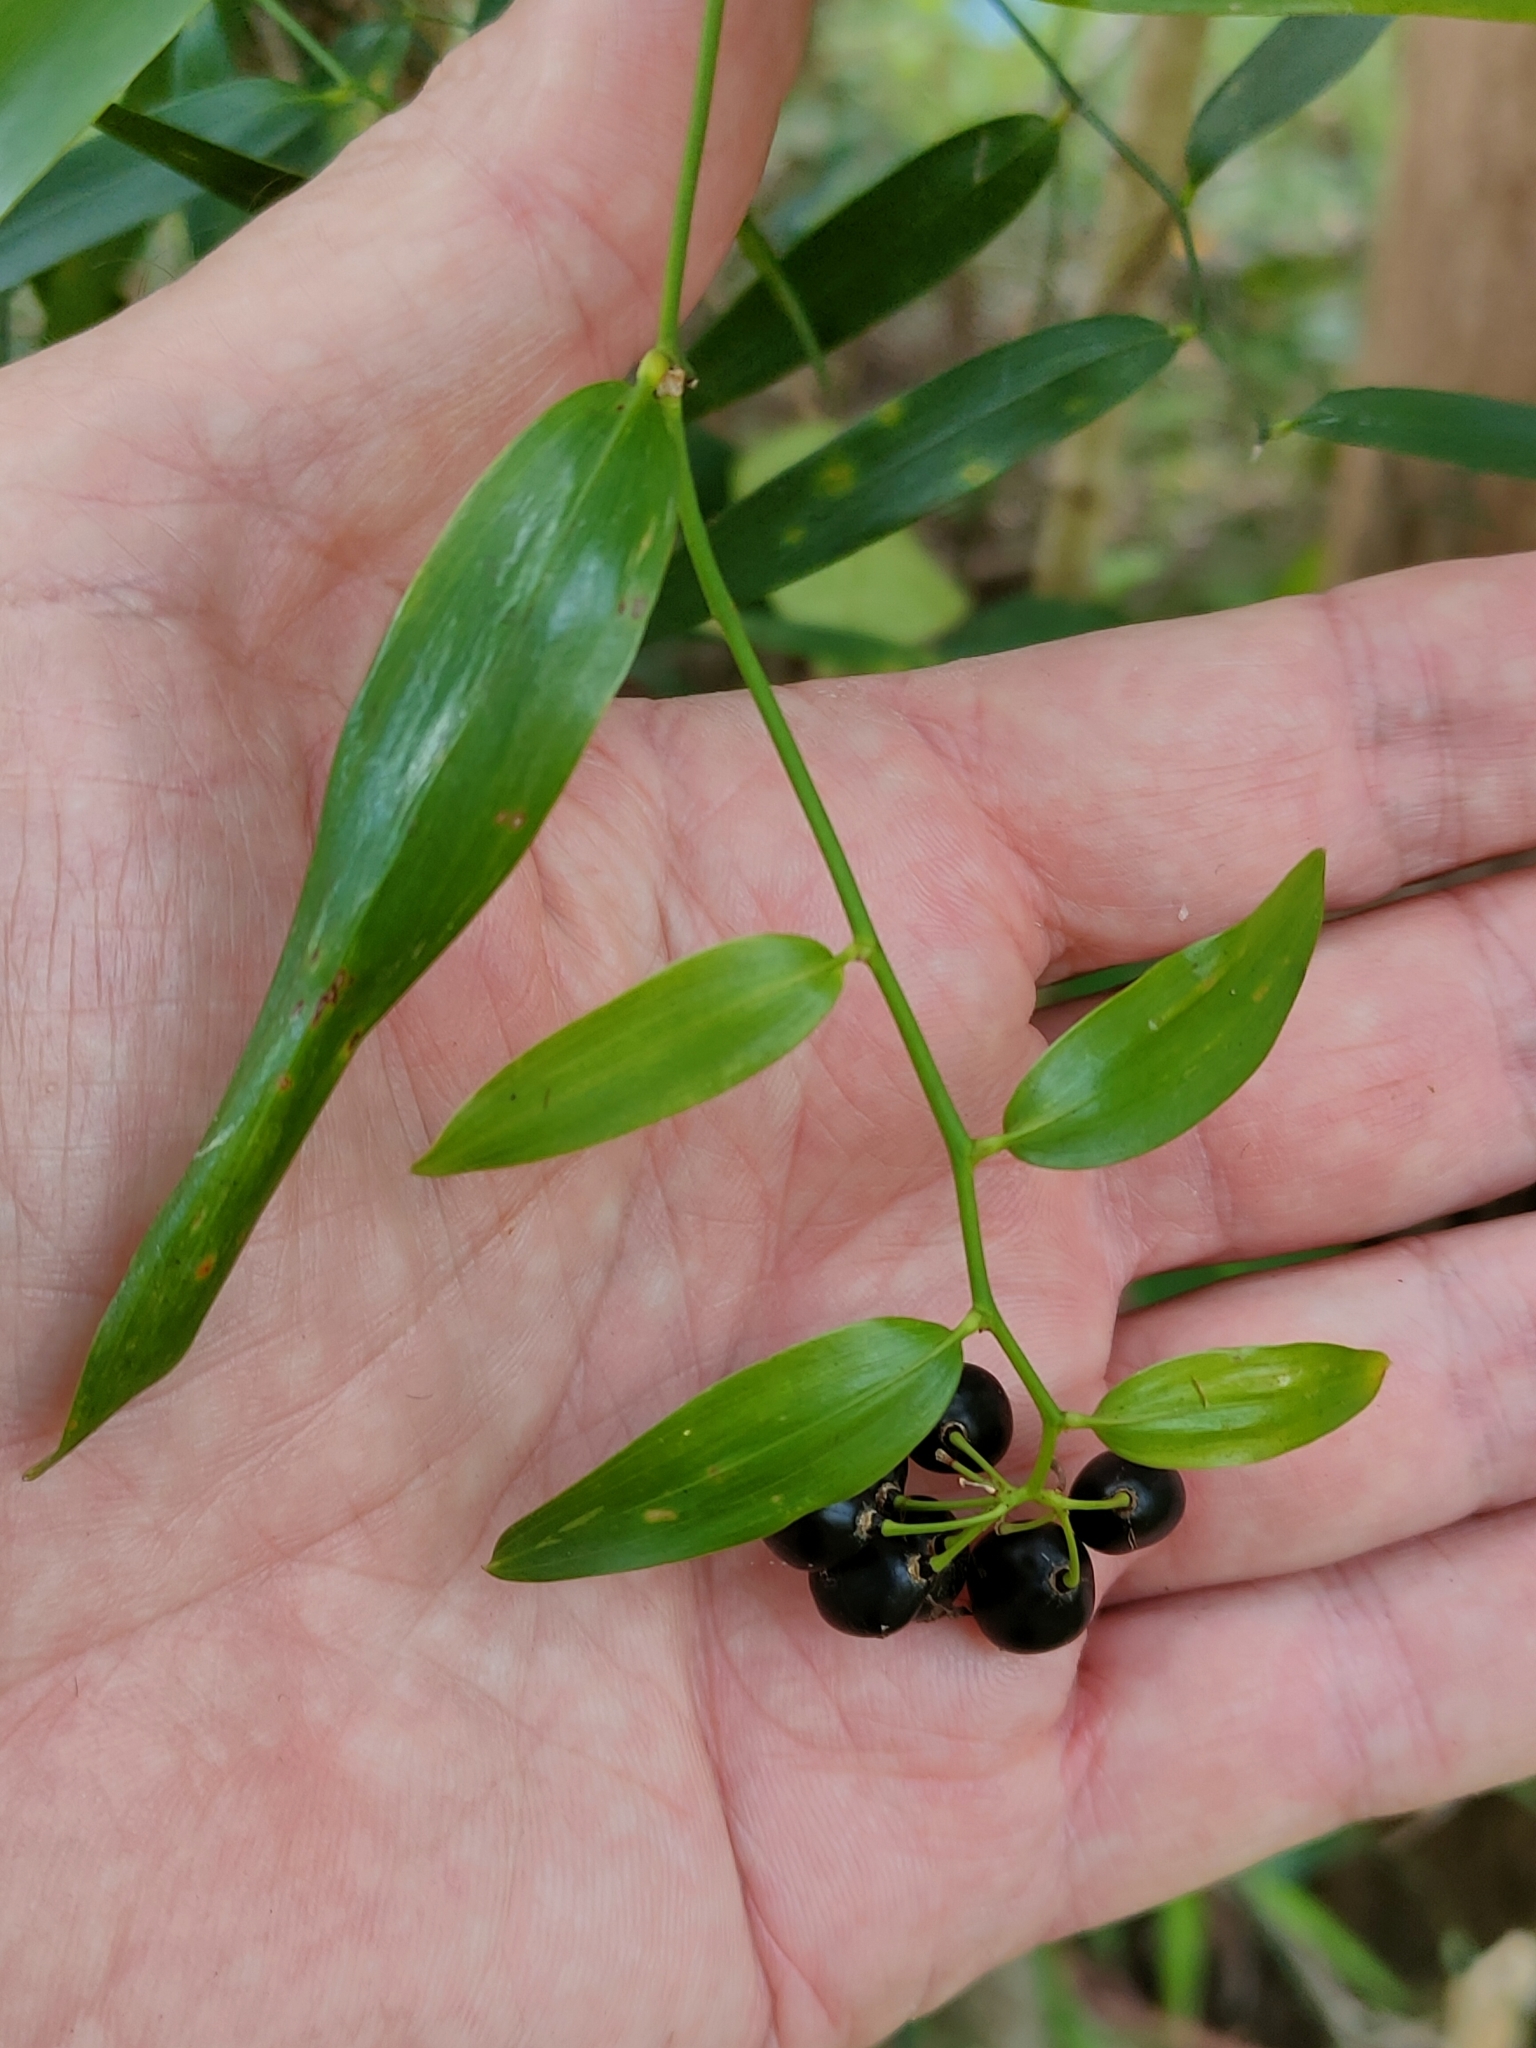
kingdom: Plantae
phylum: Tracheophyta
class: Liliopsida
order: Asparagales
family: Asphodelaceae
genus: Geitonoplesium
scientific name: Geitonoplesium cymosum
